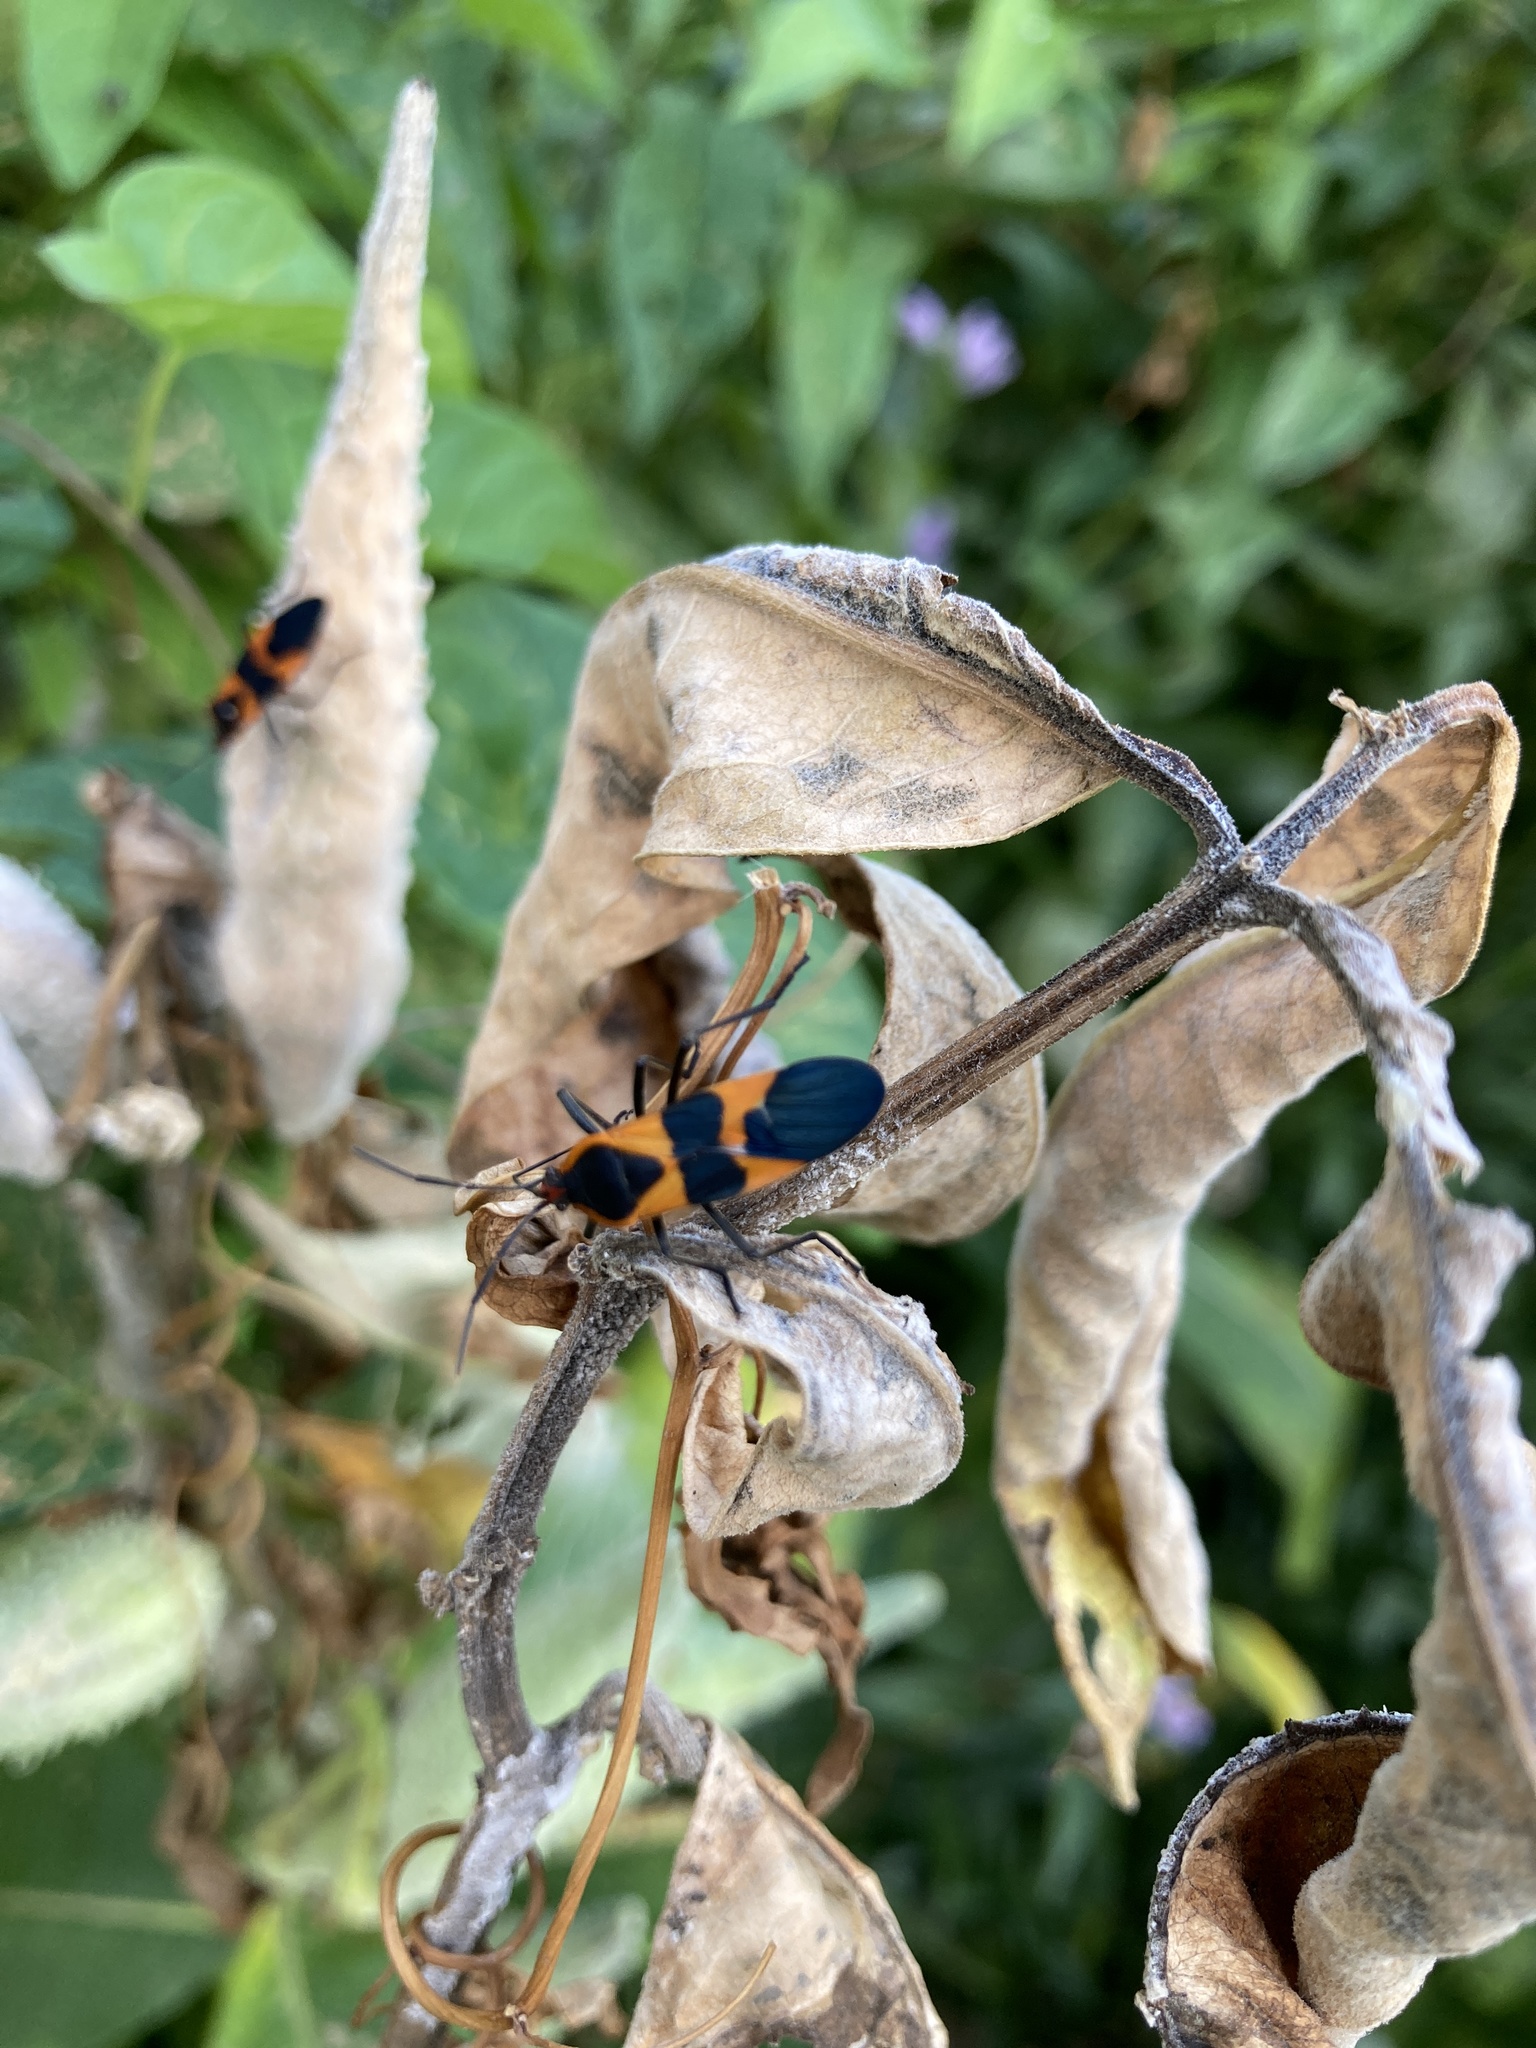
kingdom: Animalia
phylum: Arthropoda
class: Insecta
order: Hemiptera
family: Lygaeidae
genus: Oncopeltus
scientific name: Oncopeltus fasciatus
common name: Large milkweed bug
